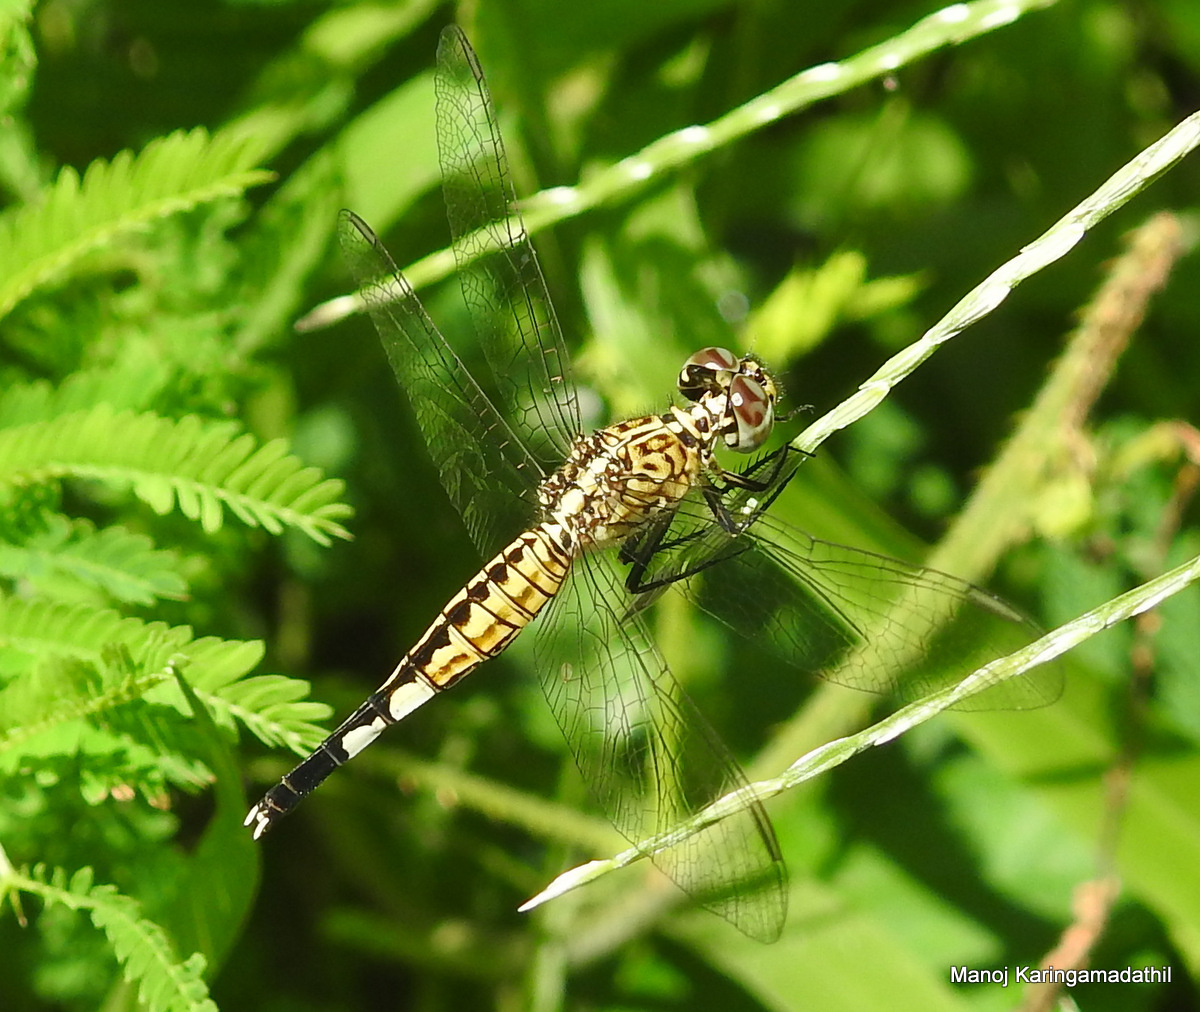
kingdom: Animalia
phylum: Arthropoda
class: Insecta
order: Odonata
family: Libellulidae
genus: Acisoma
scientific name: Acisoma panorpoides
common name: Asian pintail
